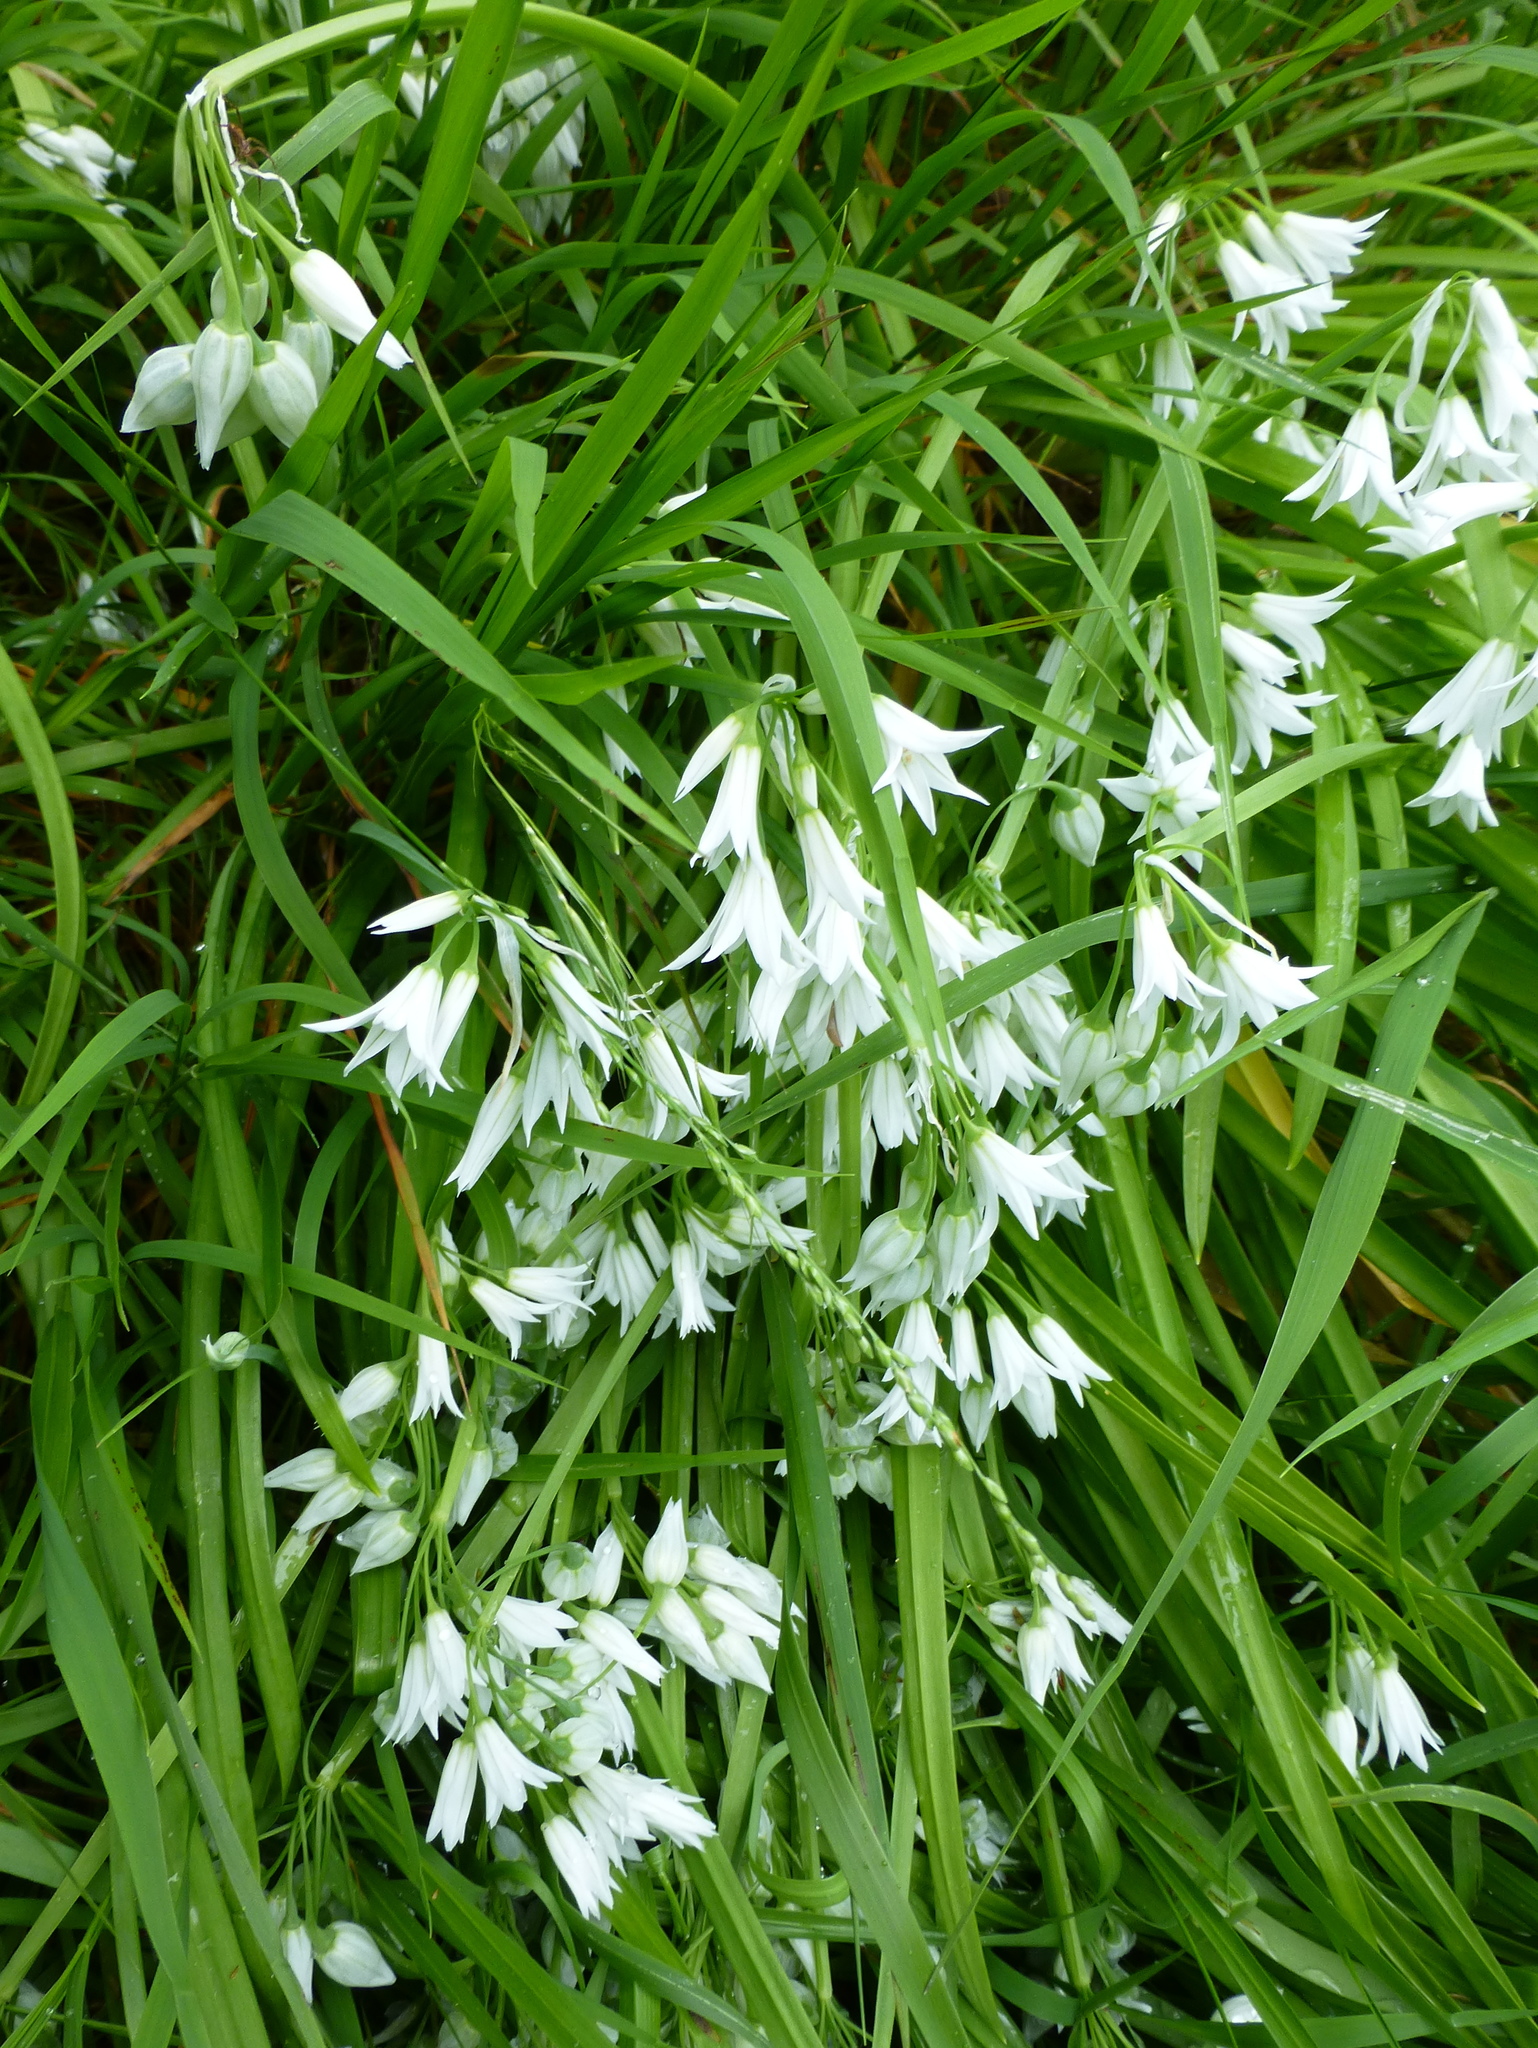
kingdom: Plantae
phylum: Tracheophyta
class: Liliopsida
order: Asparagales
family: Amaryllidaceae
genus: Allium
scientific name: Allium triquetrum
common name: Three-cornered garlic
